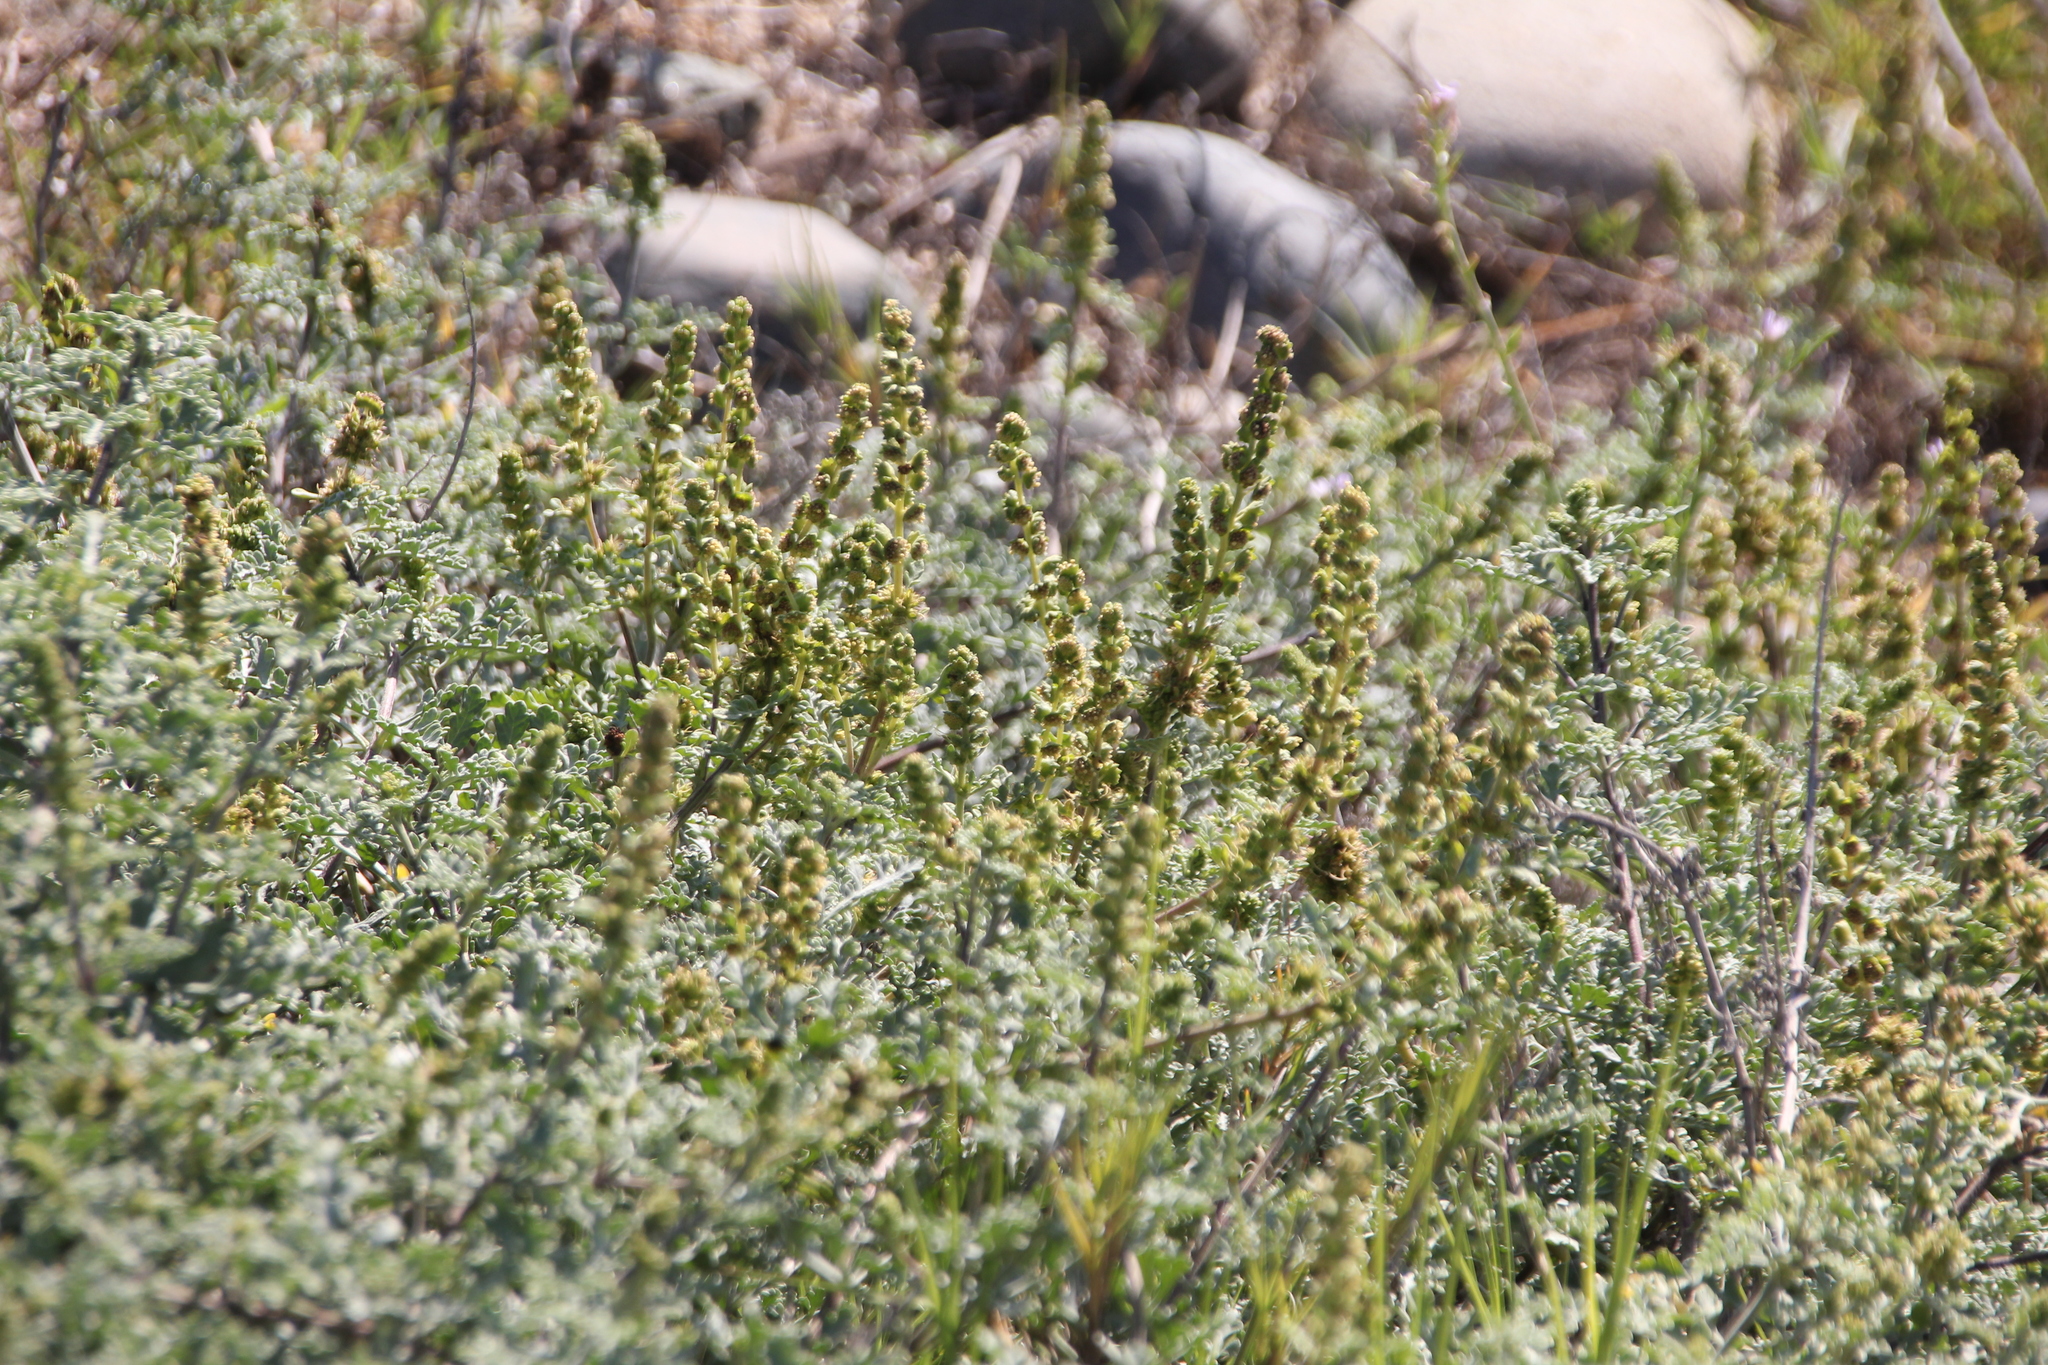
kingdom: Plantae
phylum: Tracheophyta
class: Magnoliopsida
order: Asterales
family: Asteraceae
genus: Ambrosia
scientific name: Ambrosia chamissonis
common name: Beachbur
